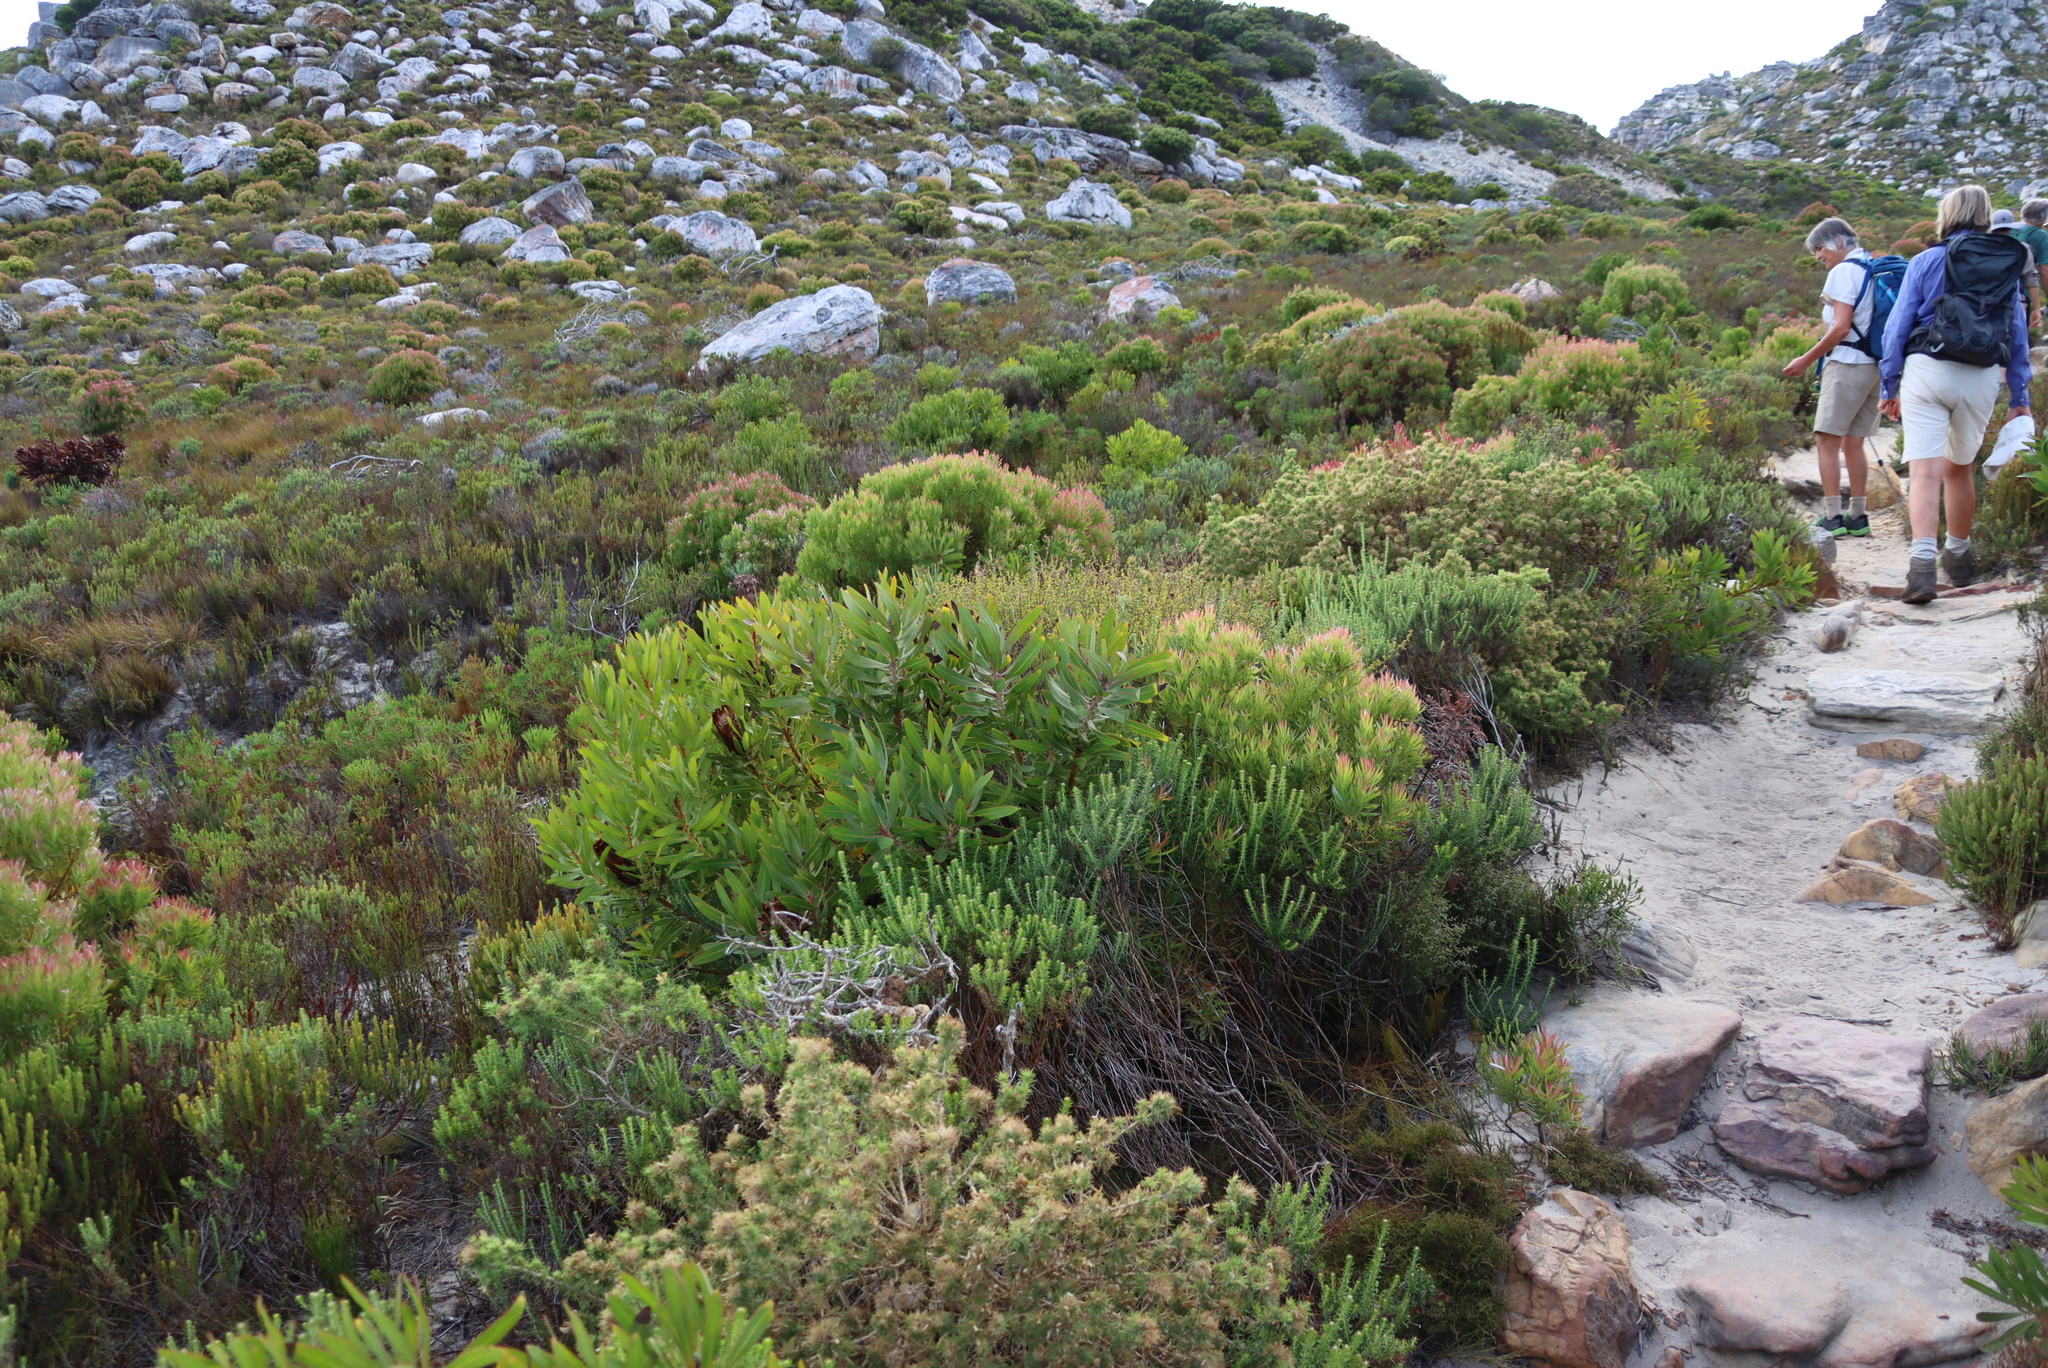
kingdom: Plantae
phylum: Tracheophyta
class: Magnoliopsida
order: Proteales
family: Proteaceae
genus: Leucadendron
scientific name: Leucadendron xanthoconus
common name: Sickle-leaf conebush
